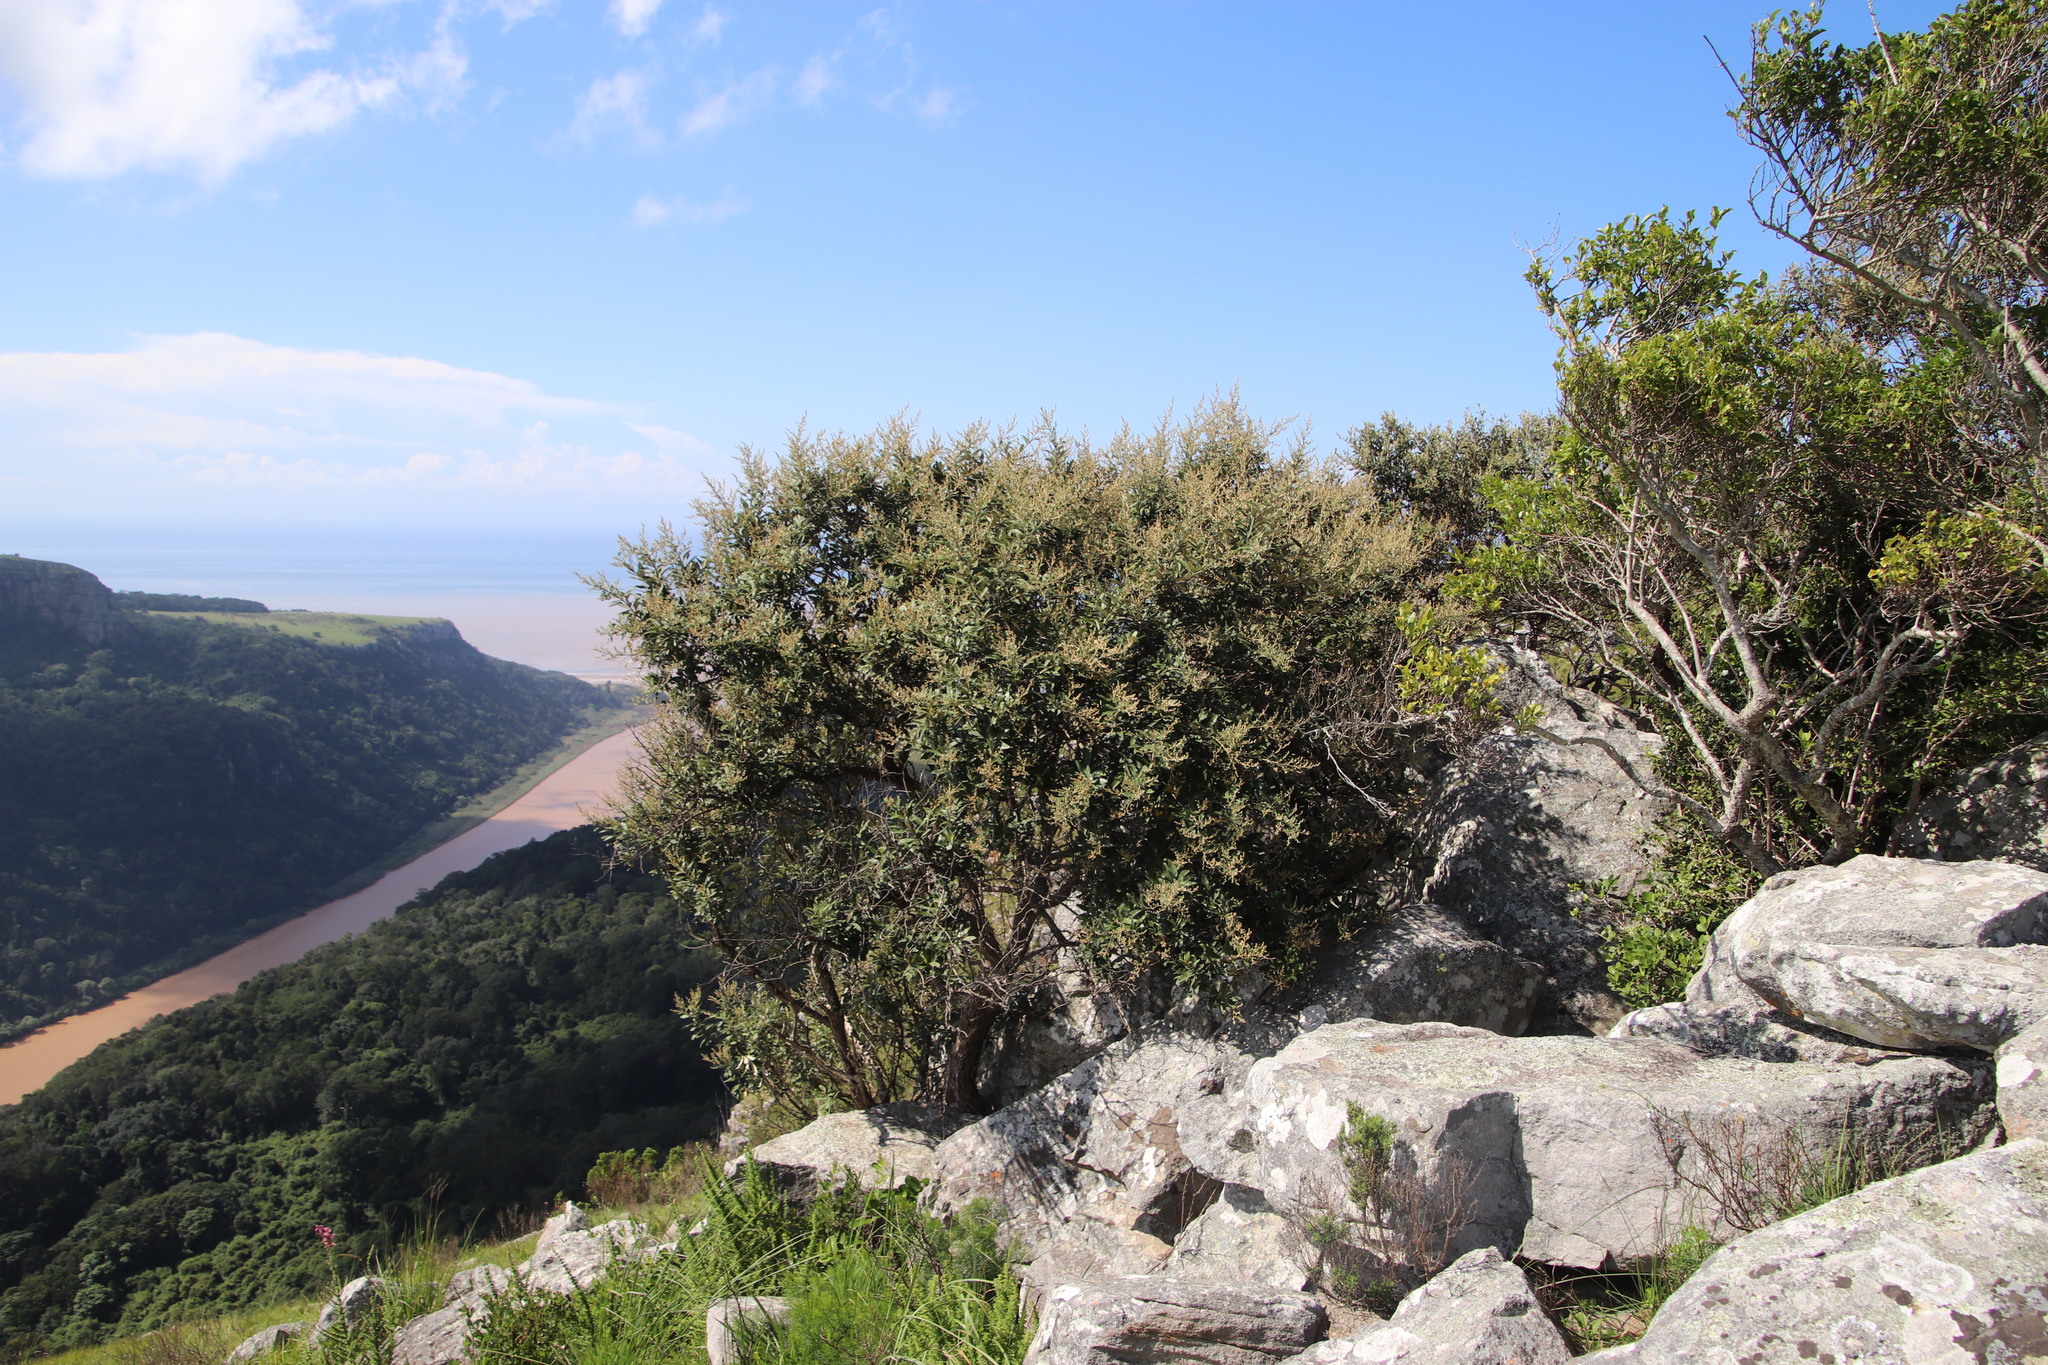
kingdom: Plantae
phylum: Tracheophyta
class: Magnoliopsida
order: Asterales
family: Asteraceae
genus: Tarchonanthus
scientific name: Tarchonanthus littoralis
